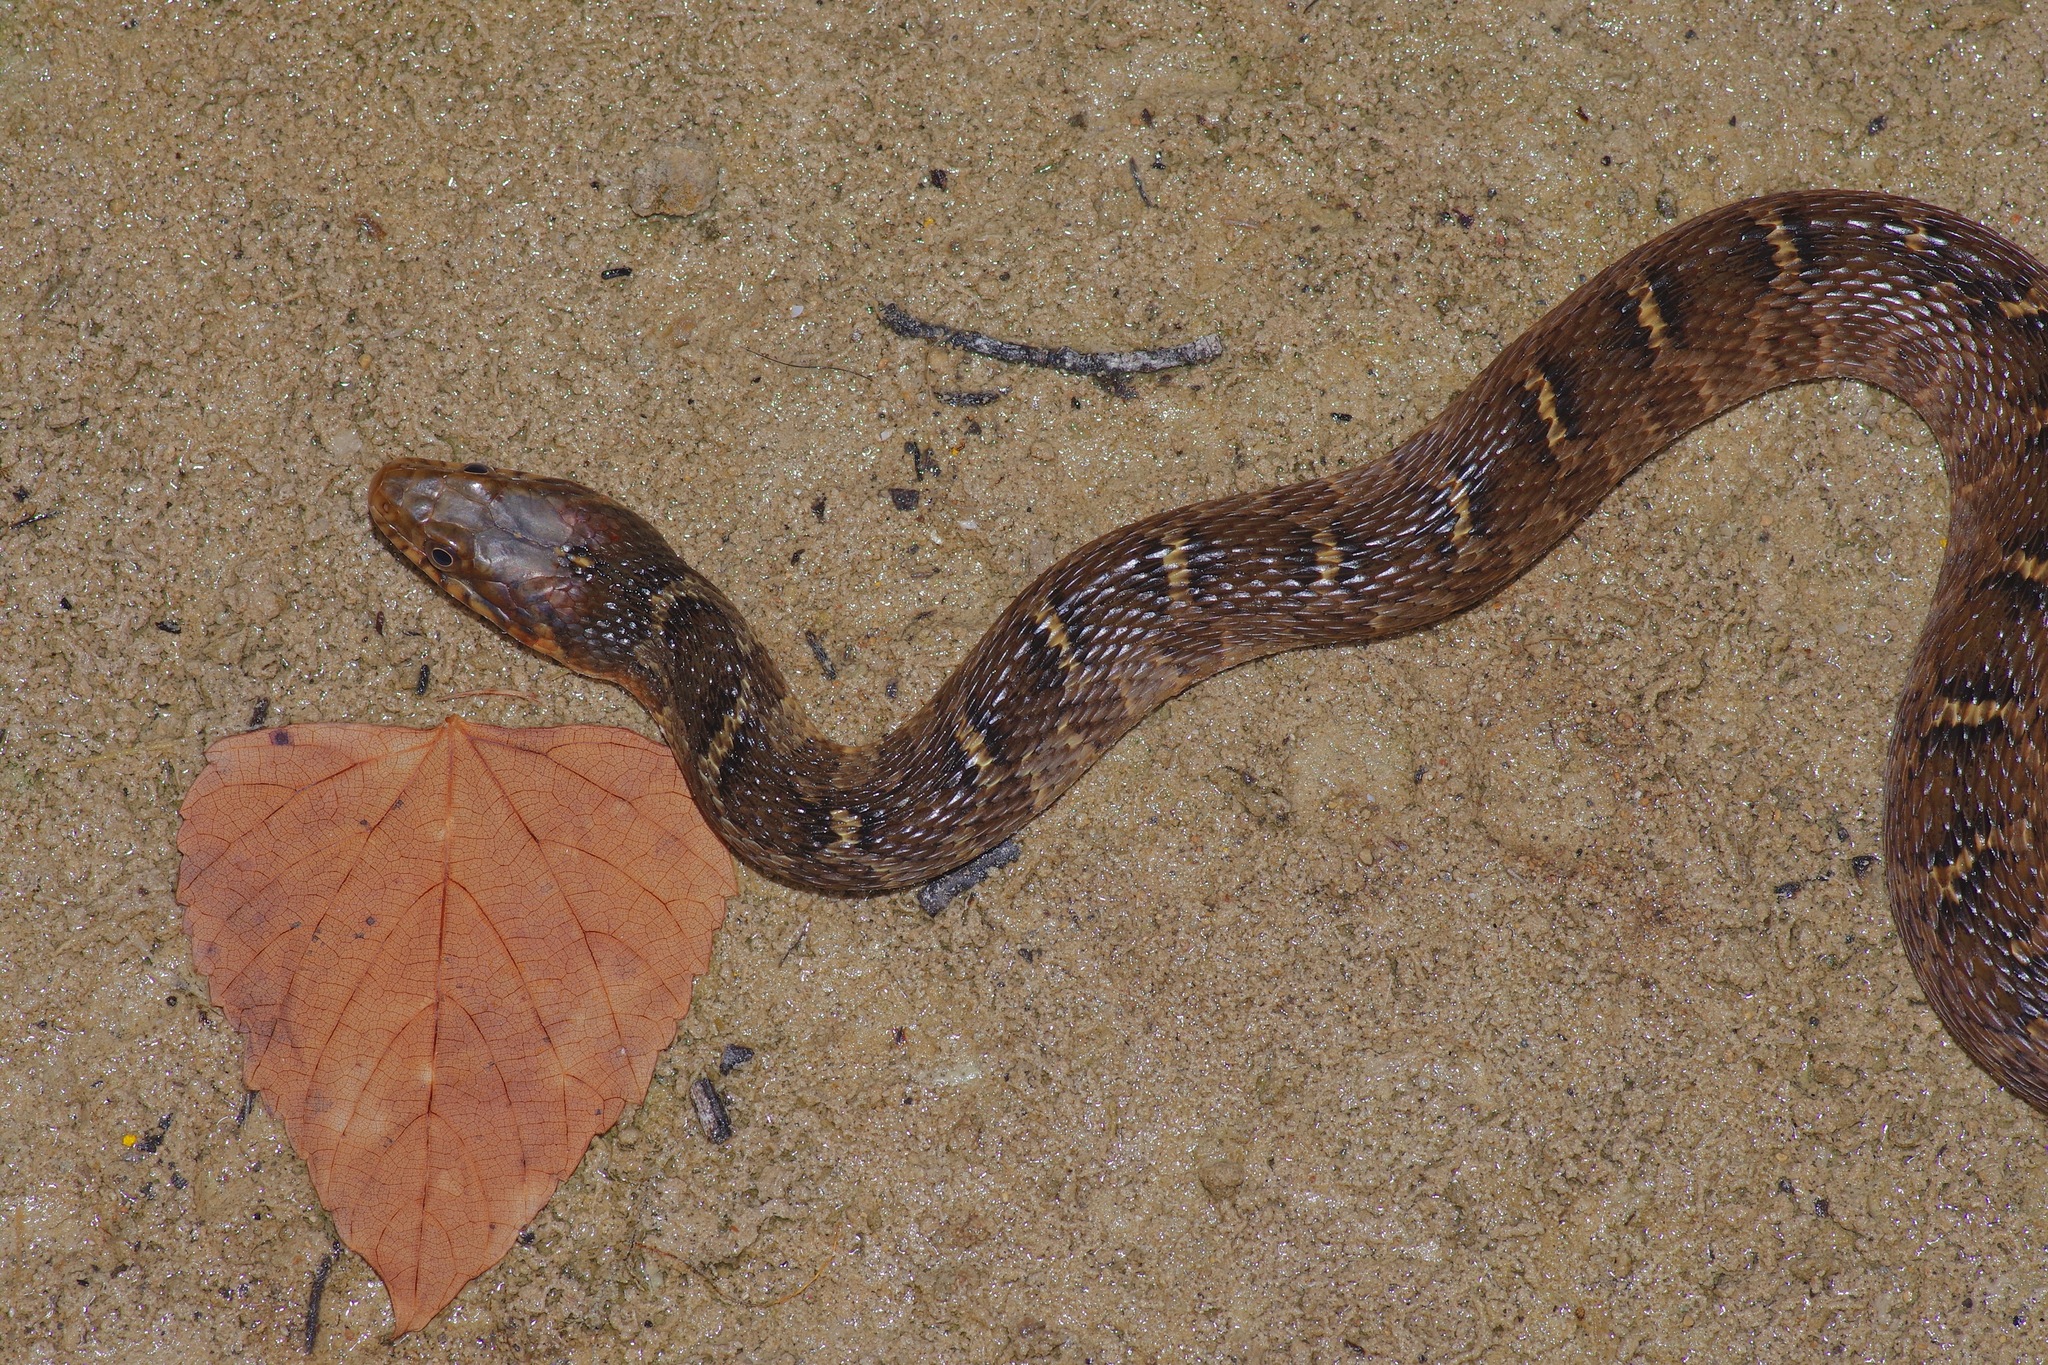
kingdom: Animalia
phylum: Chordata
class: Squamata
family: Colubridae
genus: Nerodia
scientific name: Nerodia erythrogaster
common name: Plainbelly water snake
